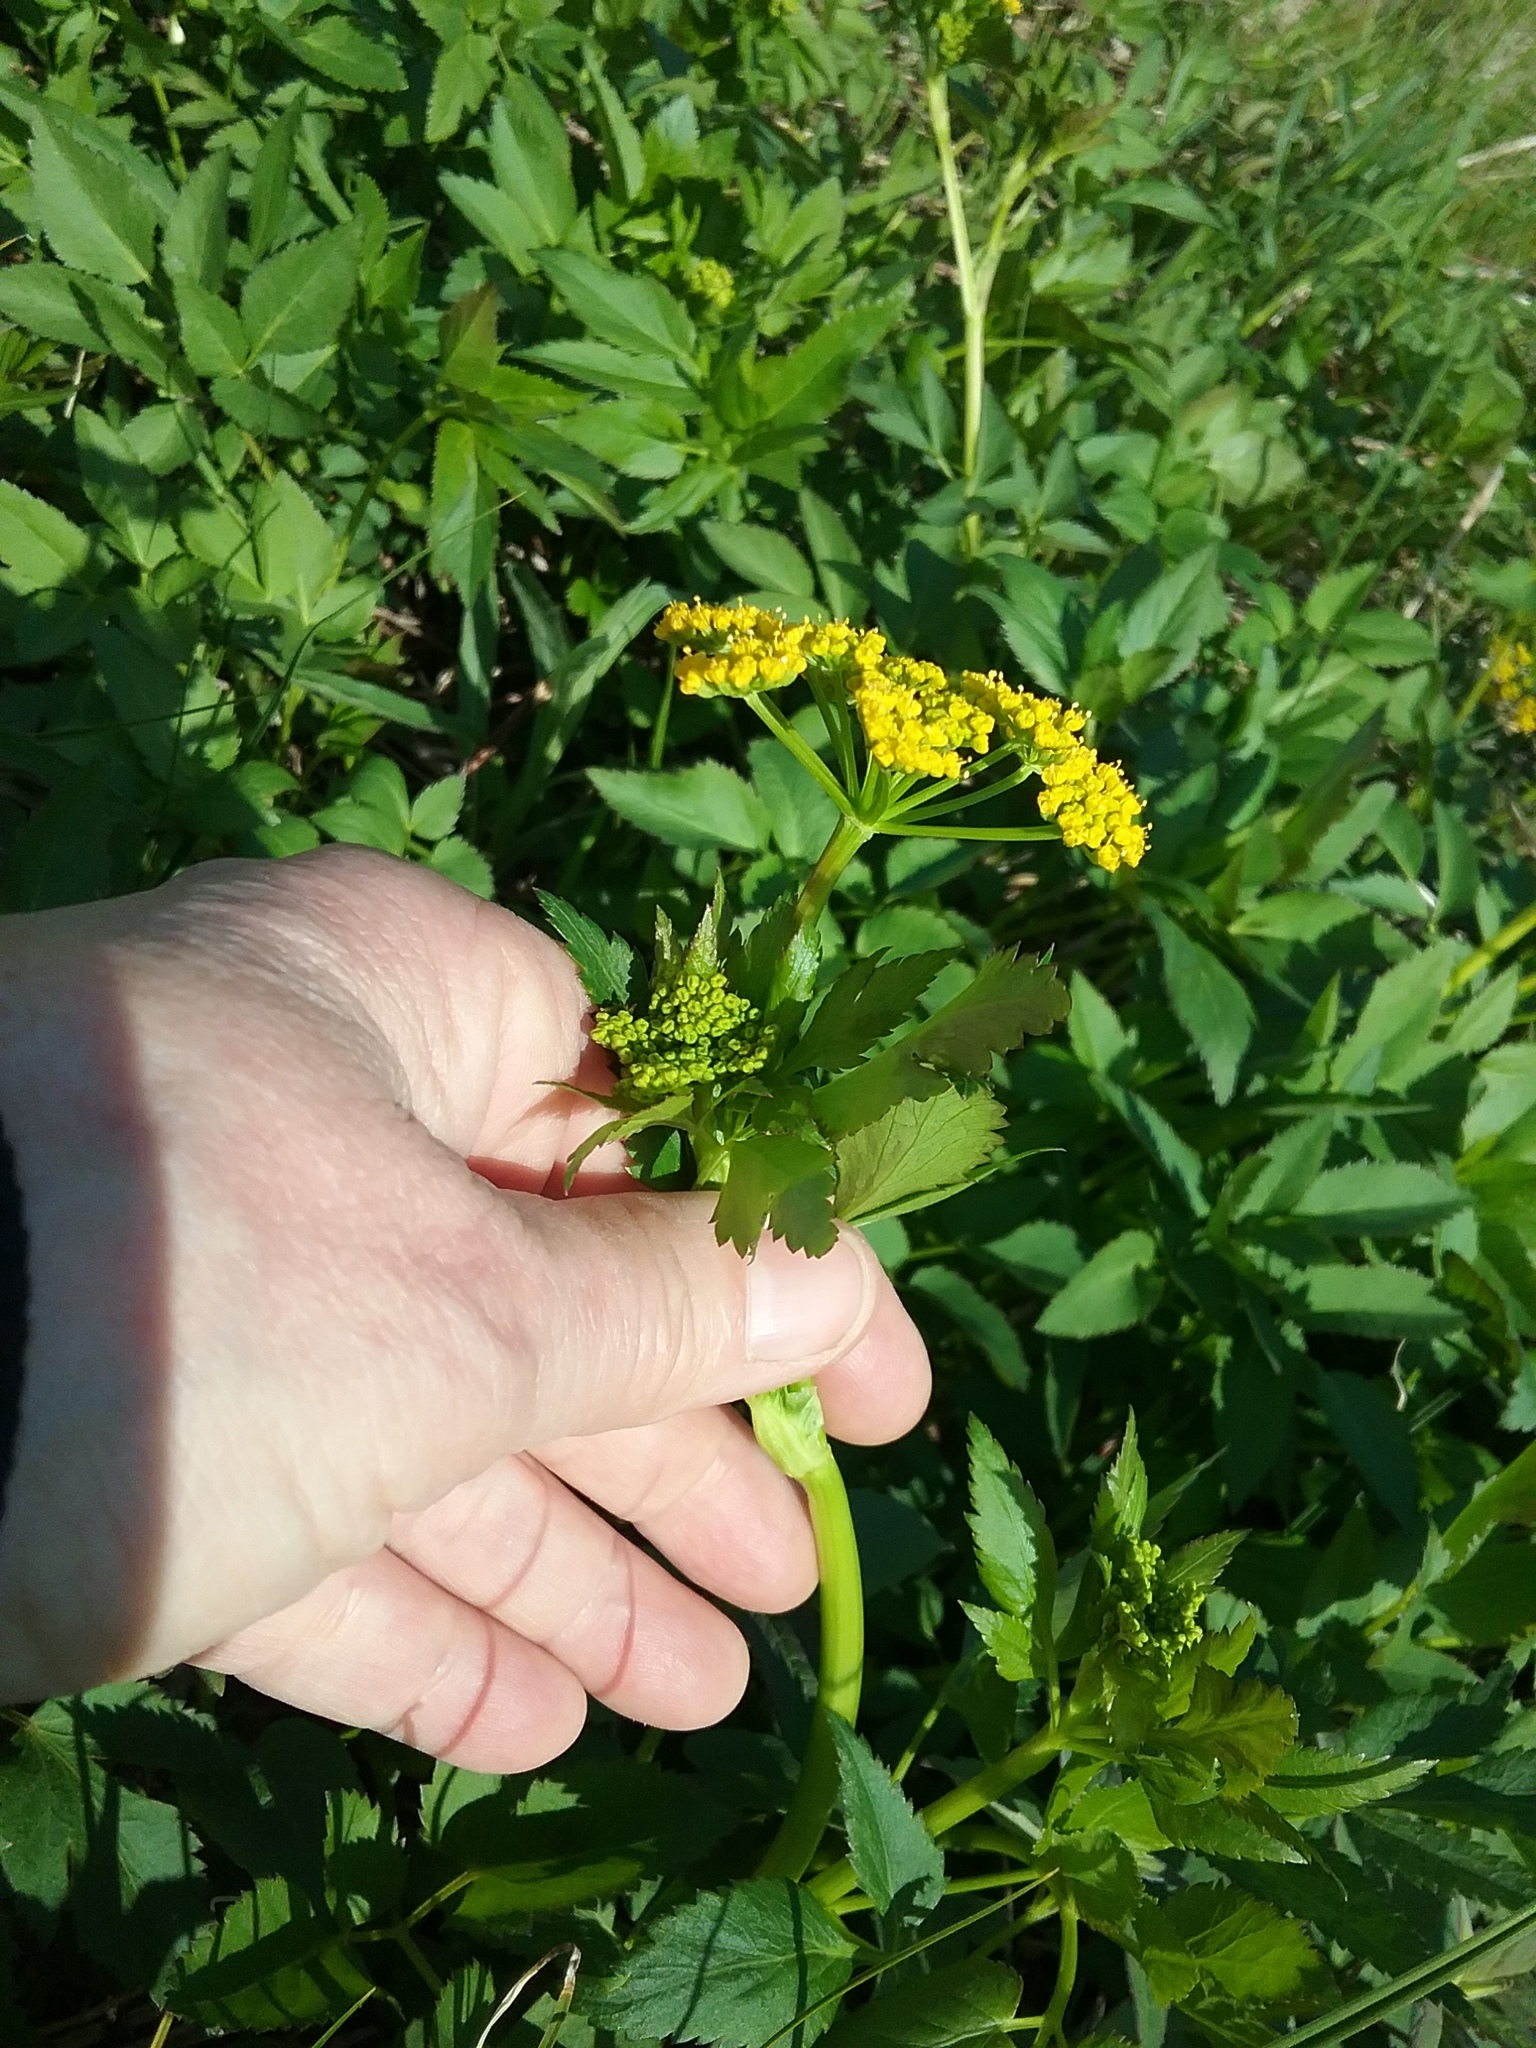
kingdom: Plantae
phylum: Tracheophyta
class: Magnoliopsida
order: Apiales
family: Apiaceae
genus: Zizia
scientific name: Zizia aurea
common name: Golden alexanders
